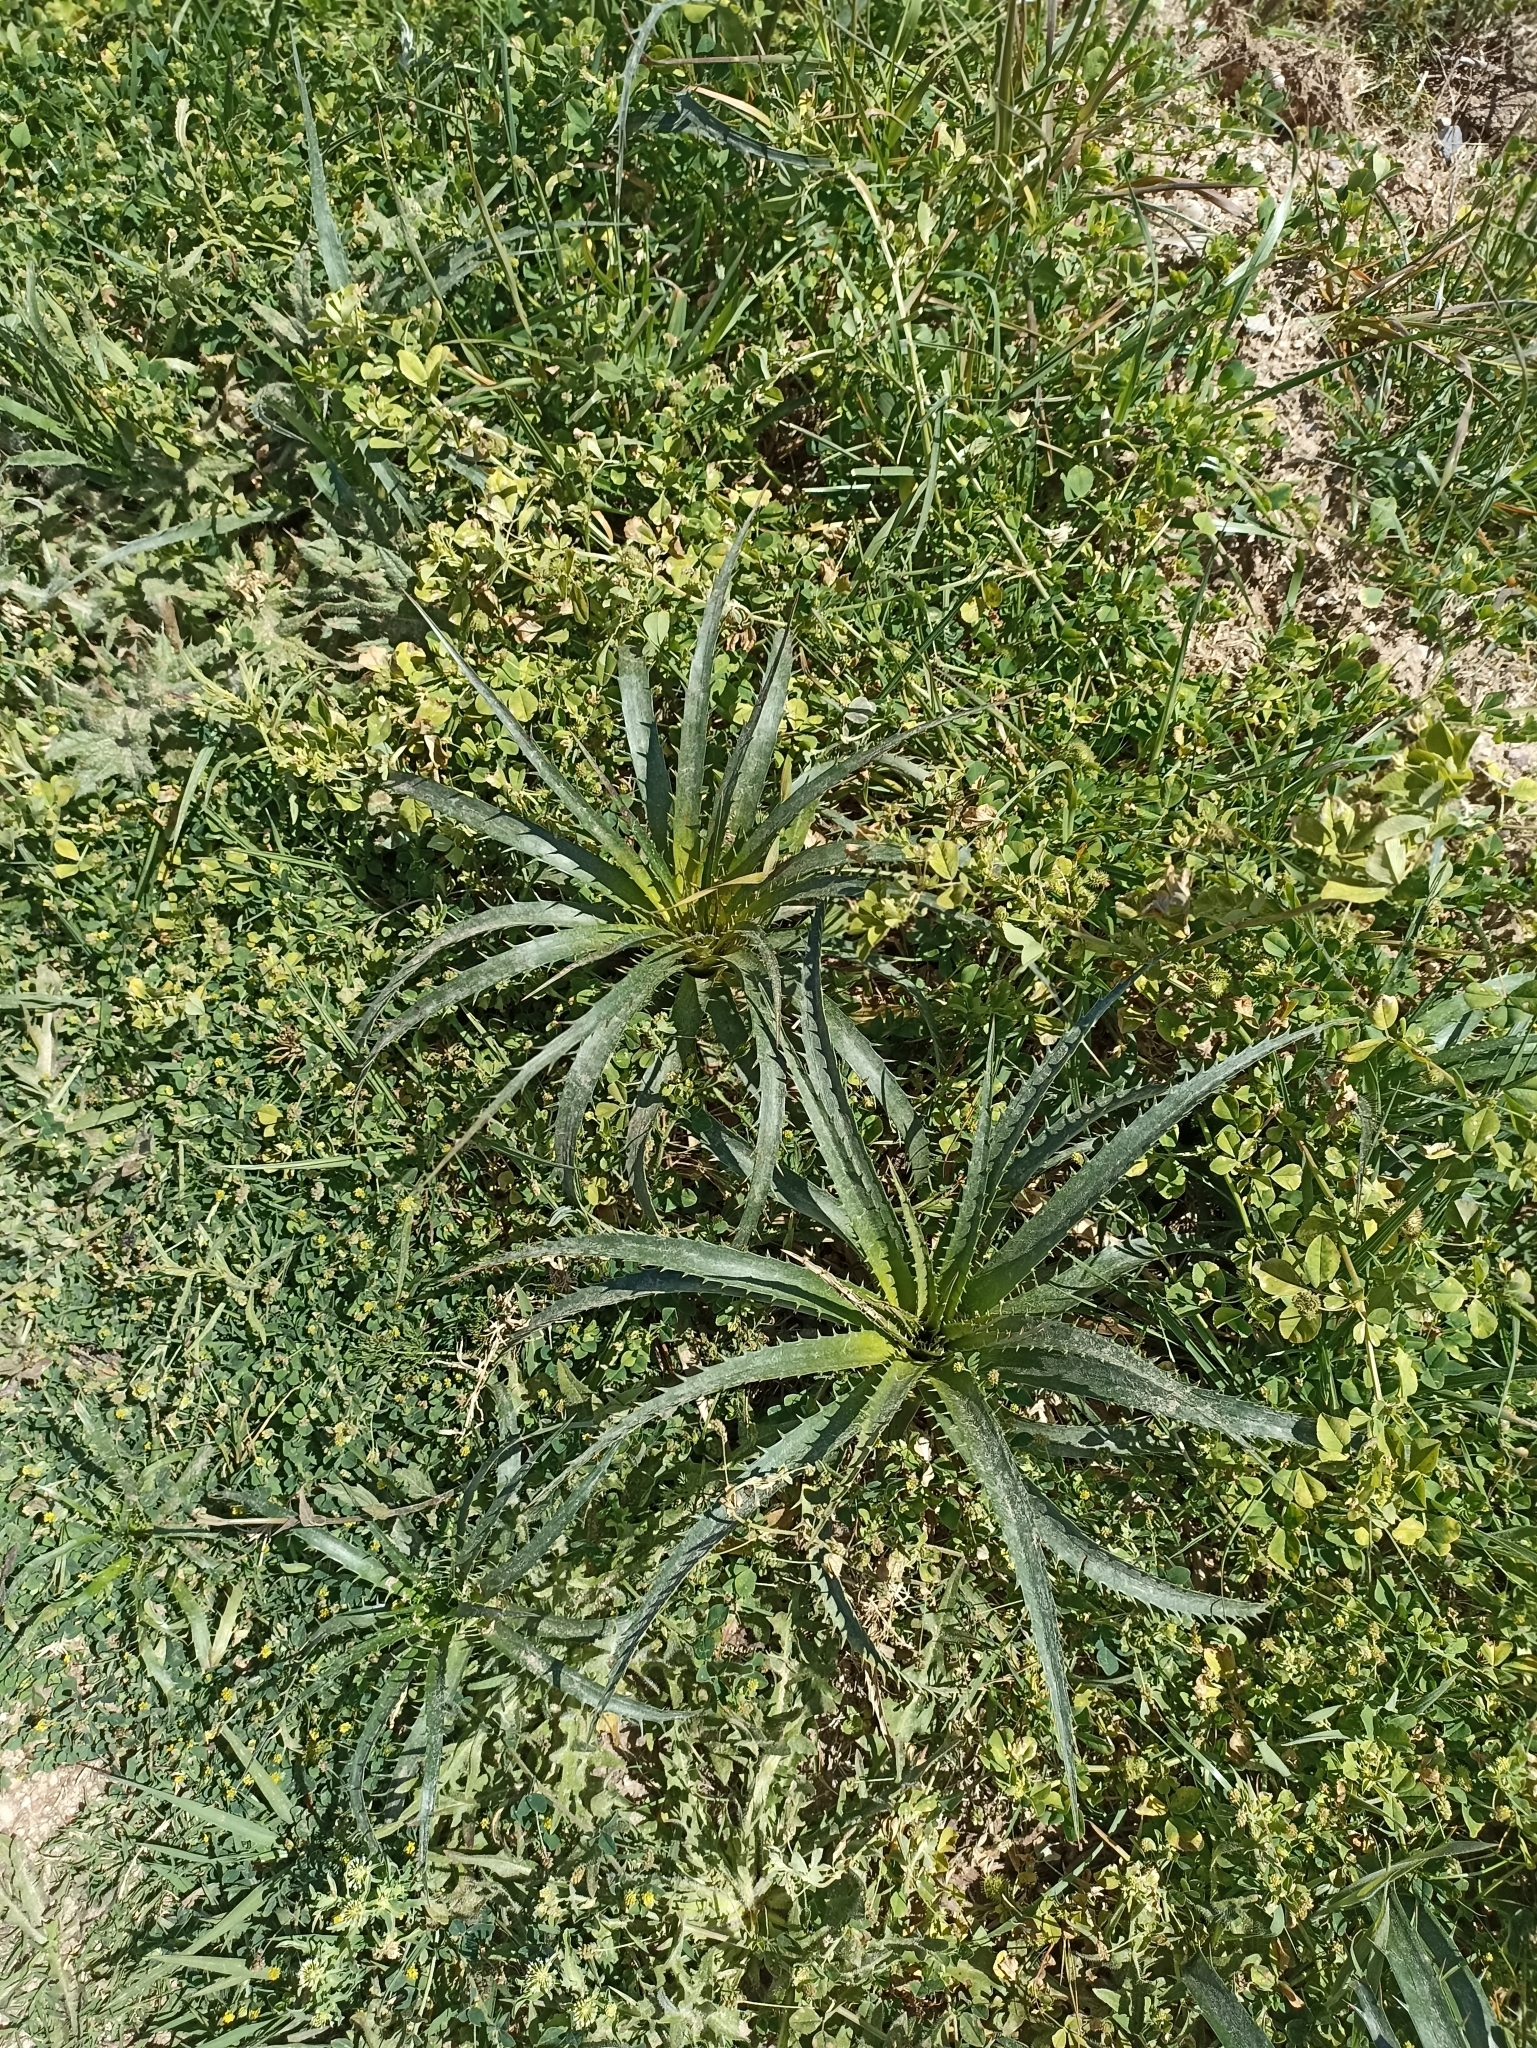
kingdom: Plantae
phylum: Tracheophyta
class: Magnoliopsida
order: Apiales
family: Apiaceae
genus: Eryngium
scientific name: Eryngium horridum
